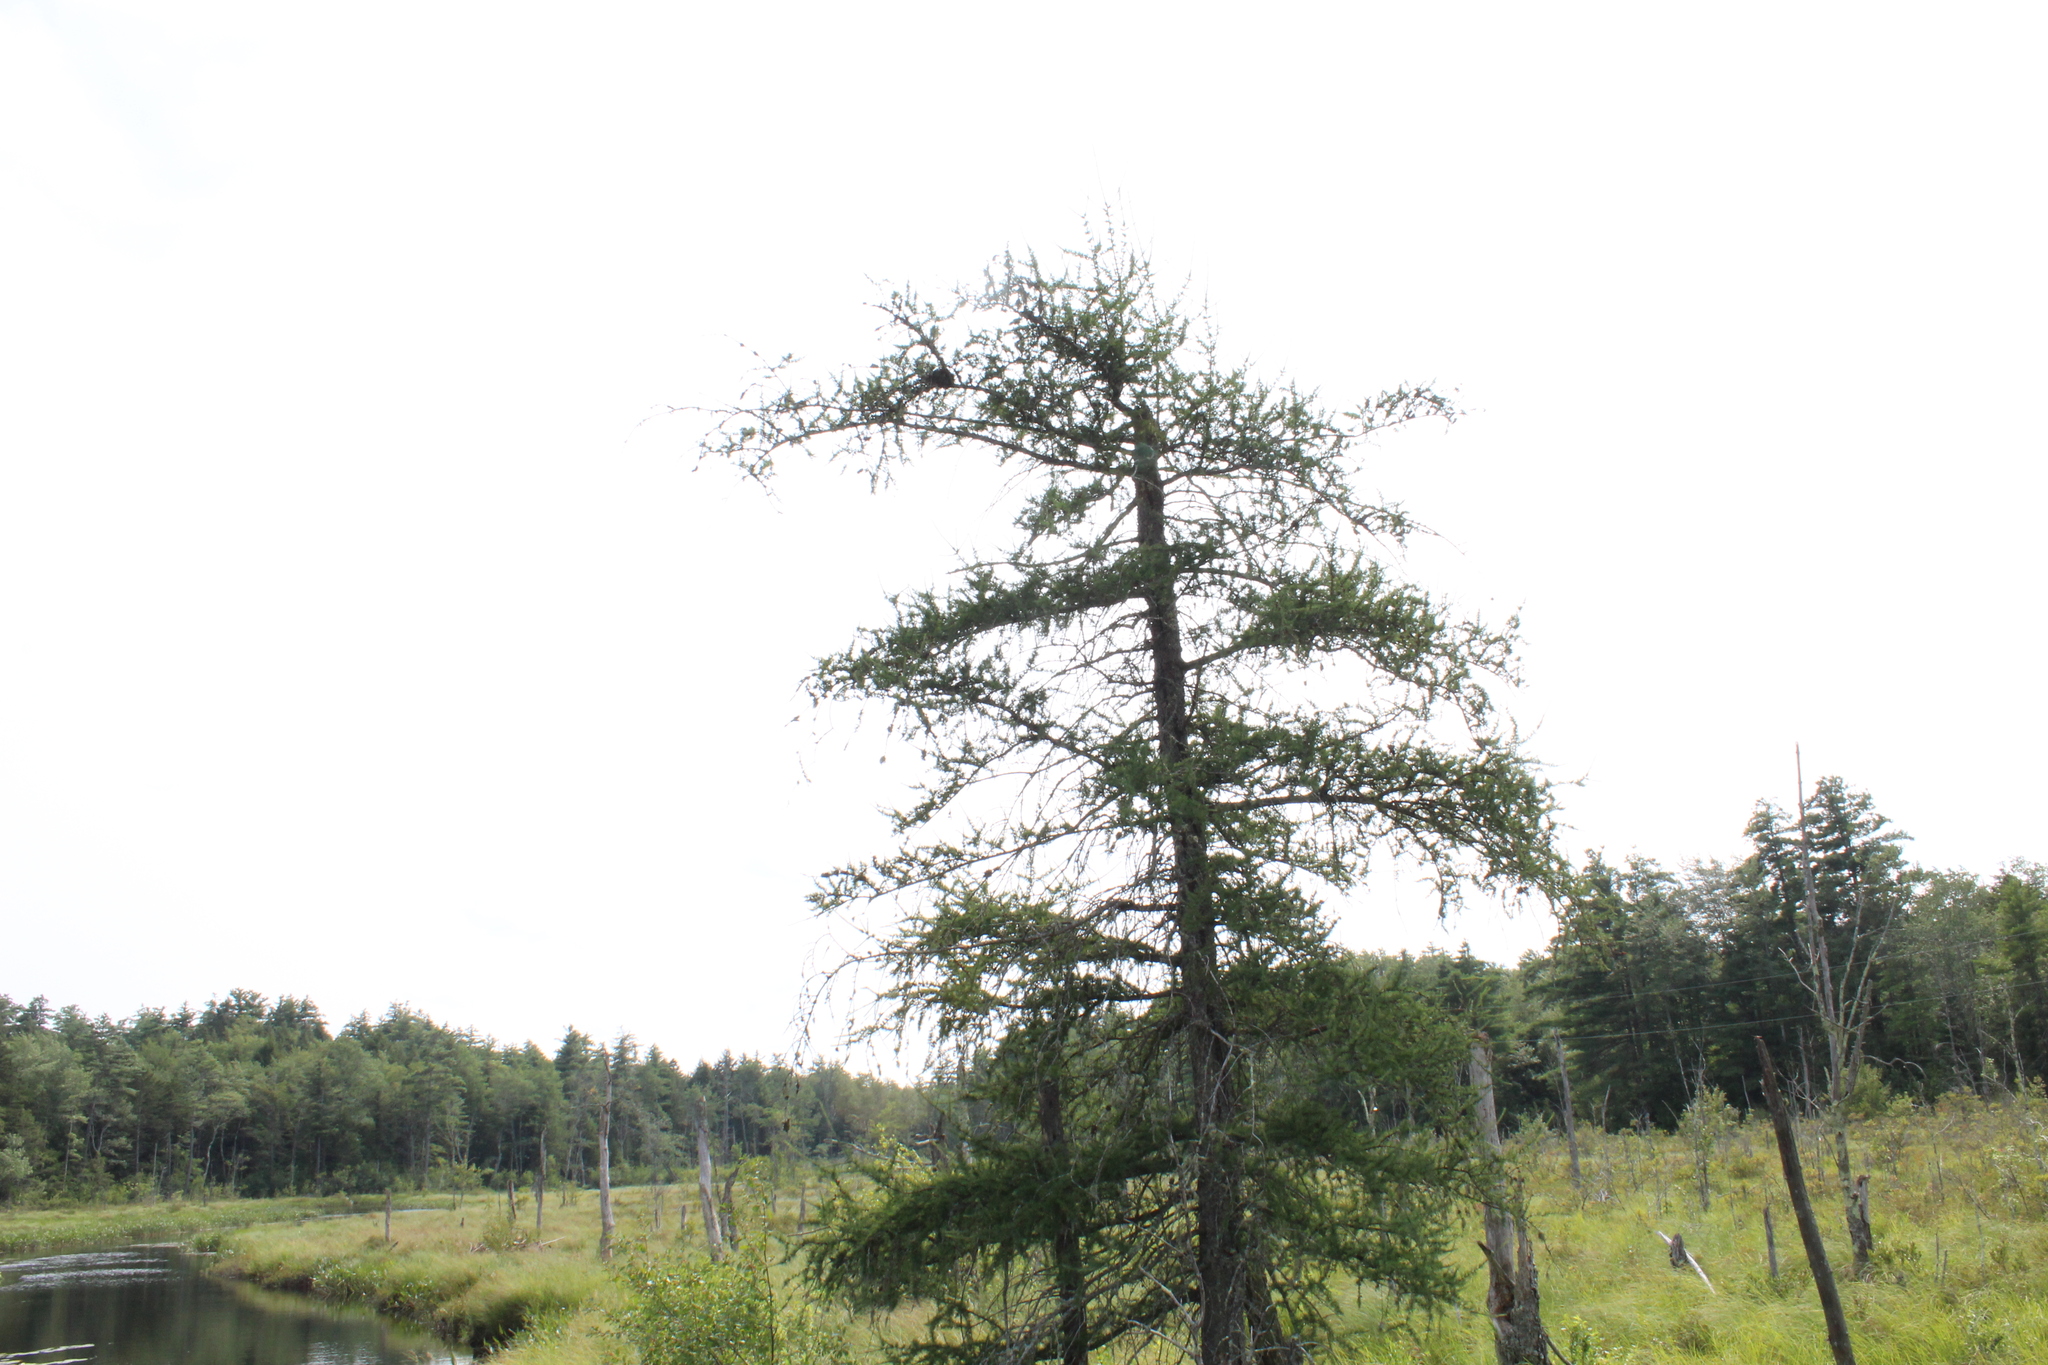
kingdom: Plantae
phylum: Tracheophyta
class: Pinopsida
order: Pinales
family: Pinaceae
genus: Larix
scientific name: Larix laricina
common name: American larch
